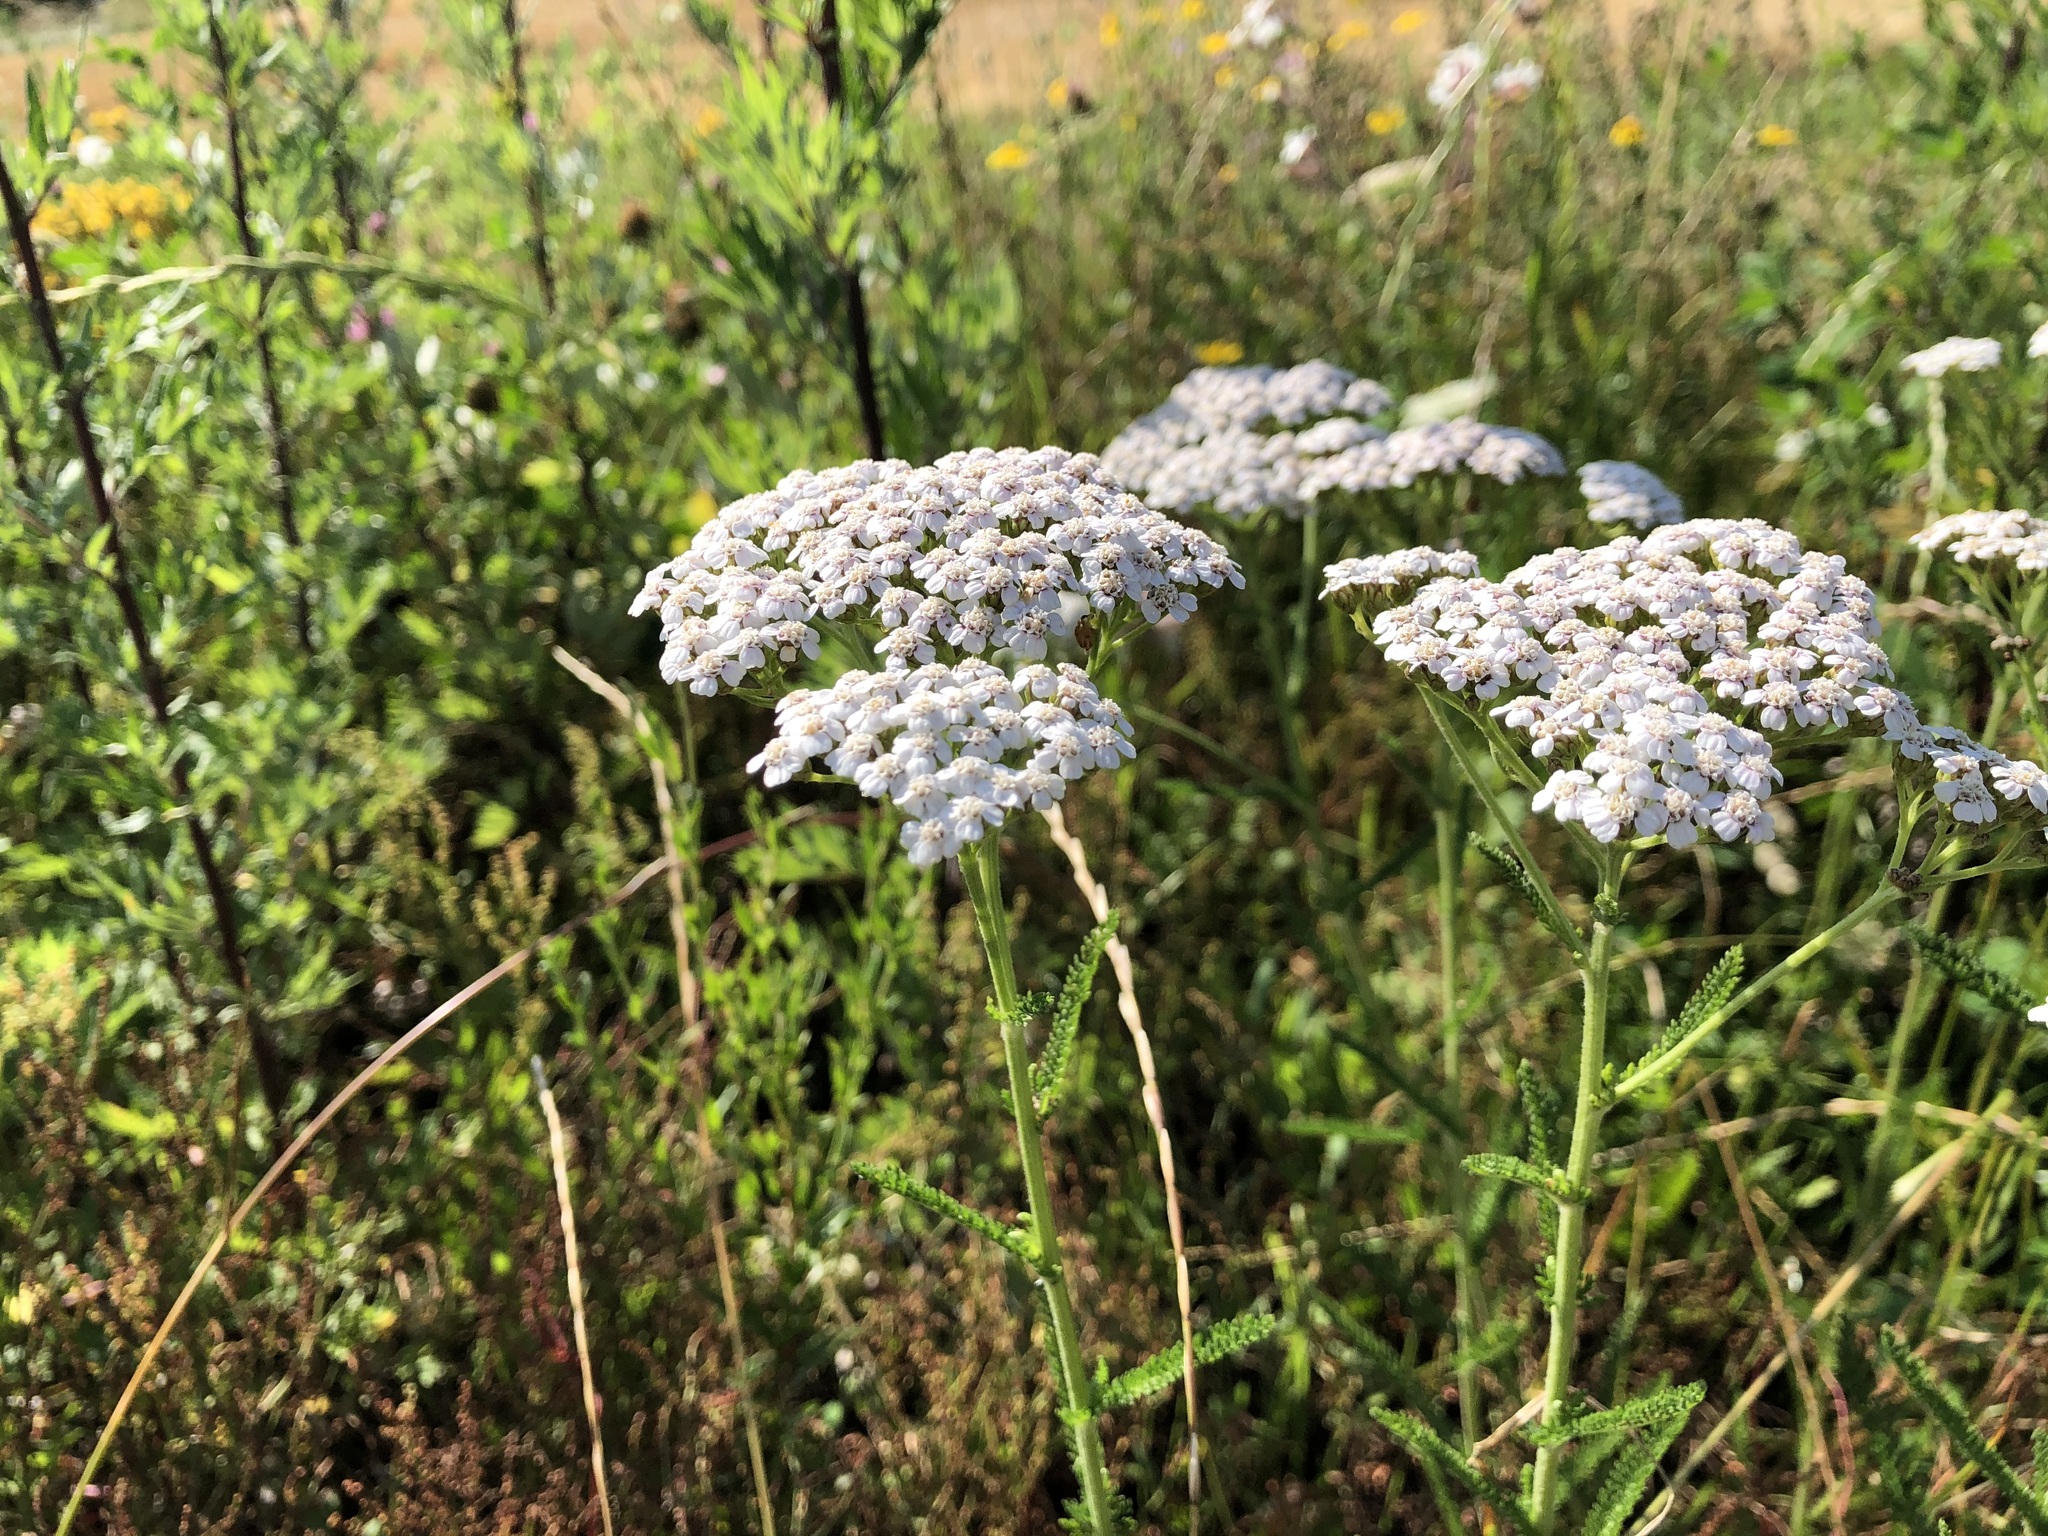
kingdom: Plantae
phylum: Tracheophyta
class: Magnoliopsida
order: Asterales
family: Asteraceae
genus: Achillea
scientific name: Achillea millefolium
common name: Yarrow
